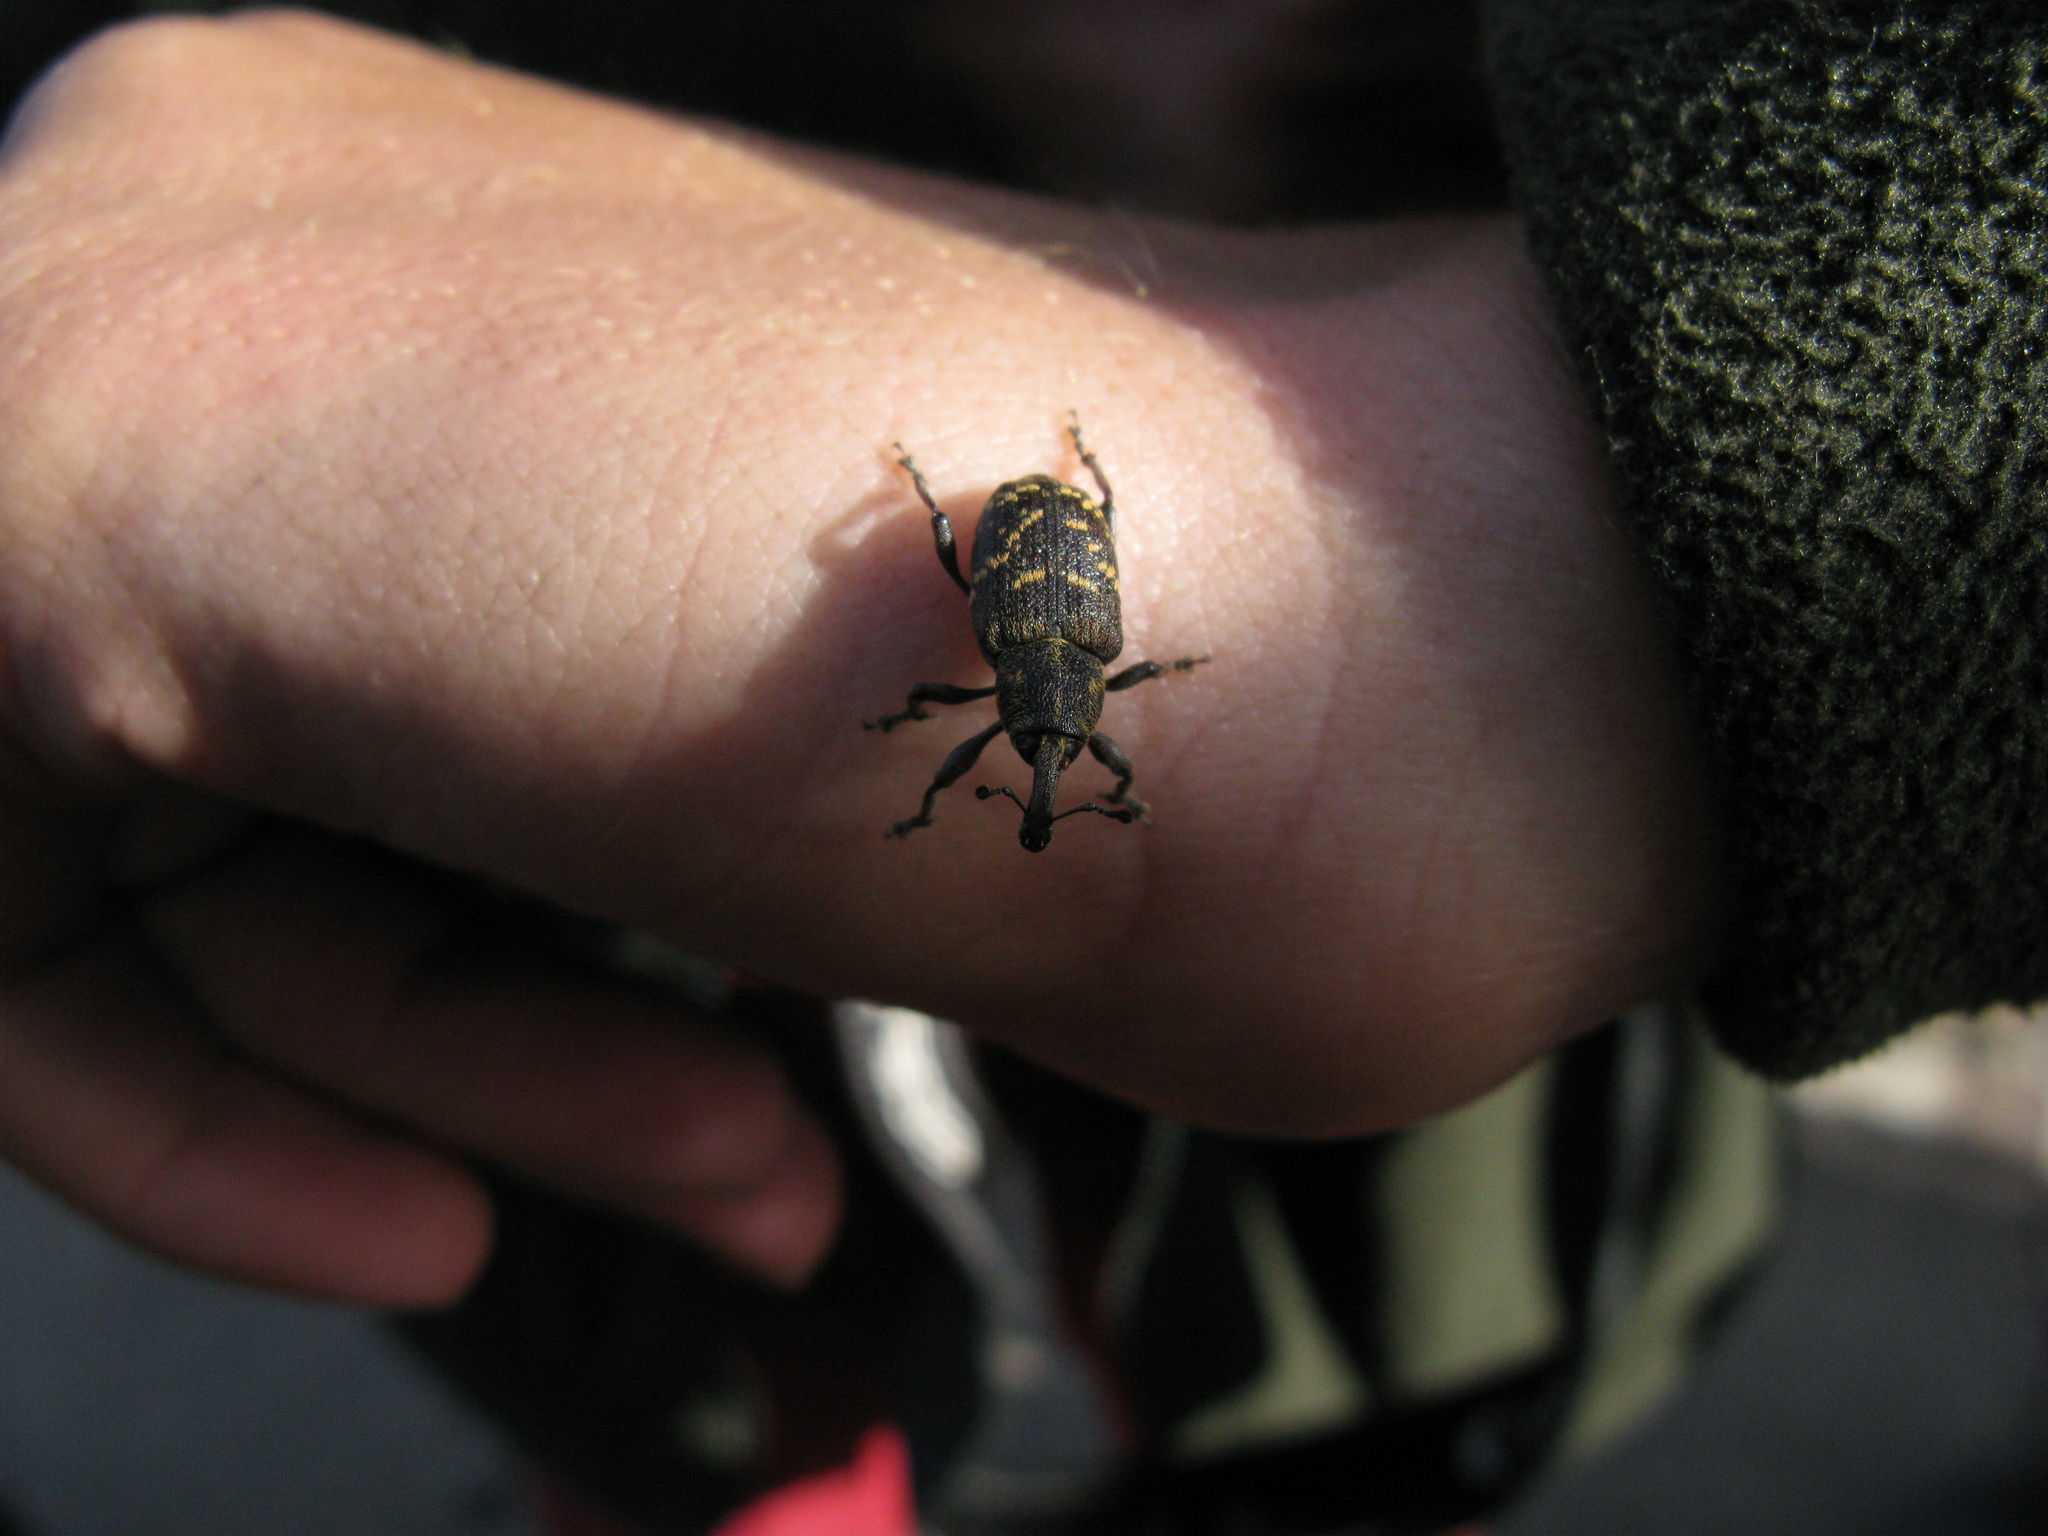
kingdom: Animalia
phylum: Arthropoda
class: Insecta
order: Coleoptera
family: Curculionidae
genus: Hylobius
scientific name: Hylobius abietis
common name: Large pine weevil
